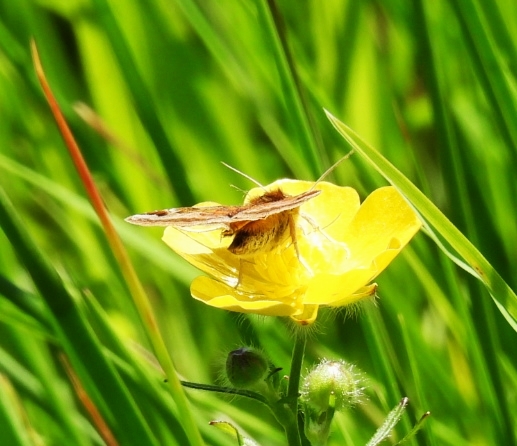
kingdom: Animalia
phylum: Arthropoda
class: Insecta
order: Lepidoptera
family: Erebidae
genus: Euclidia
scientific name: Euclidia glyphica
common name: Burnet companion
